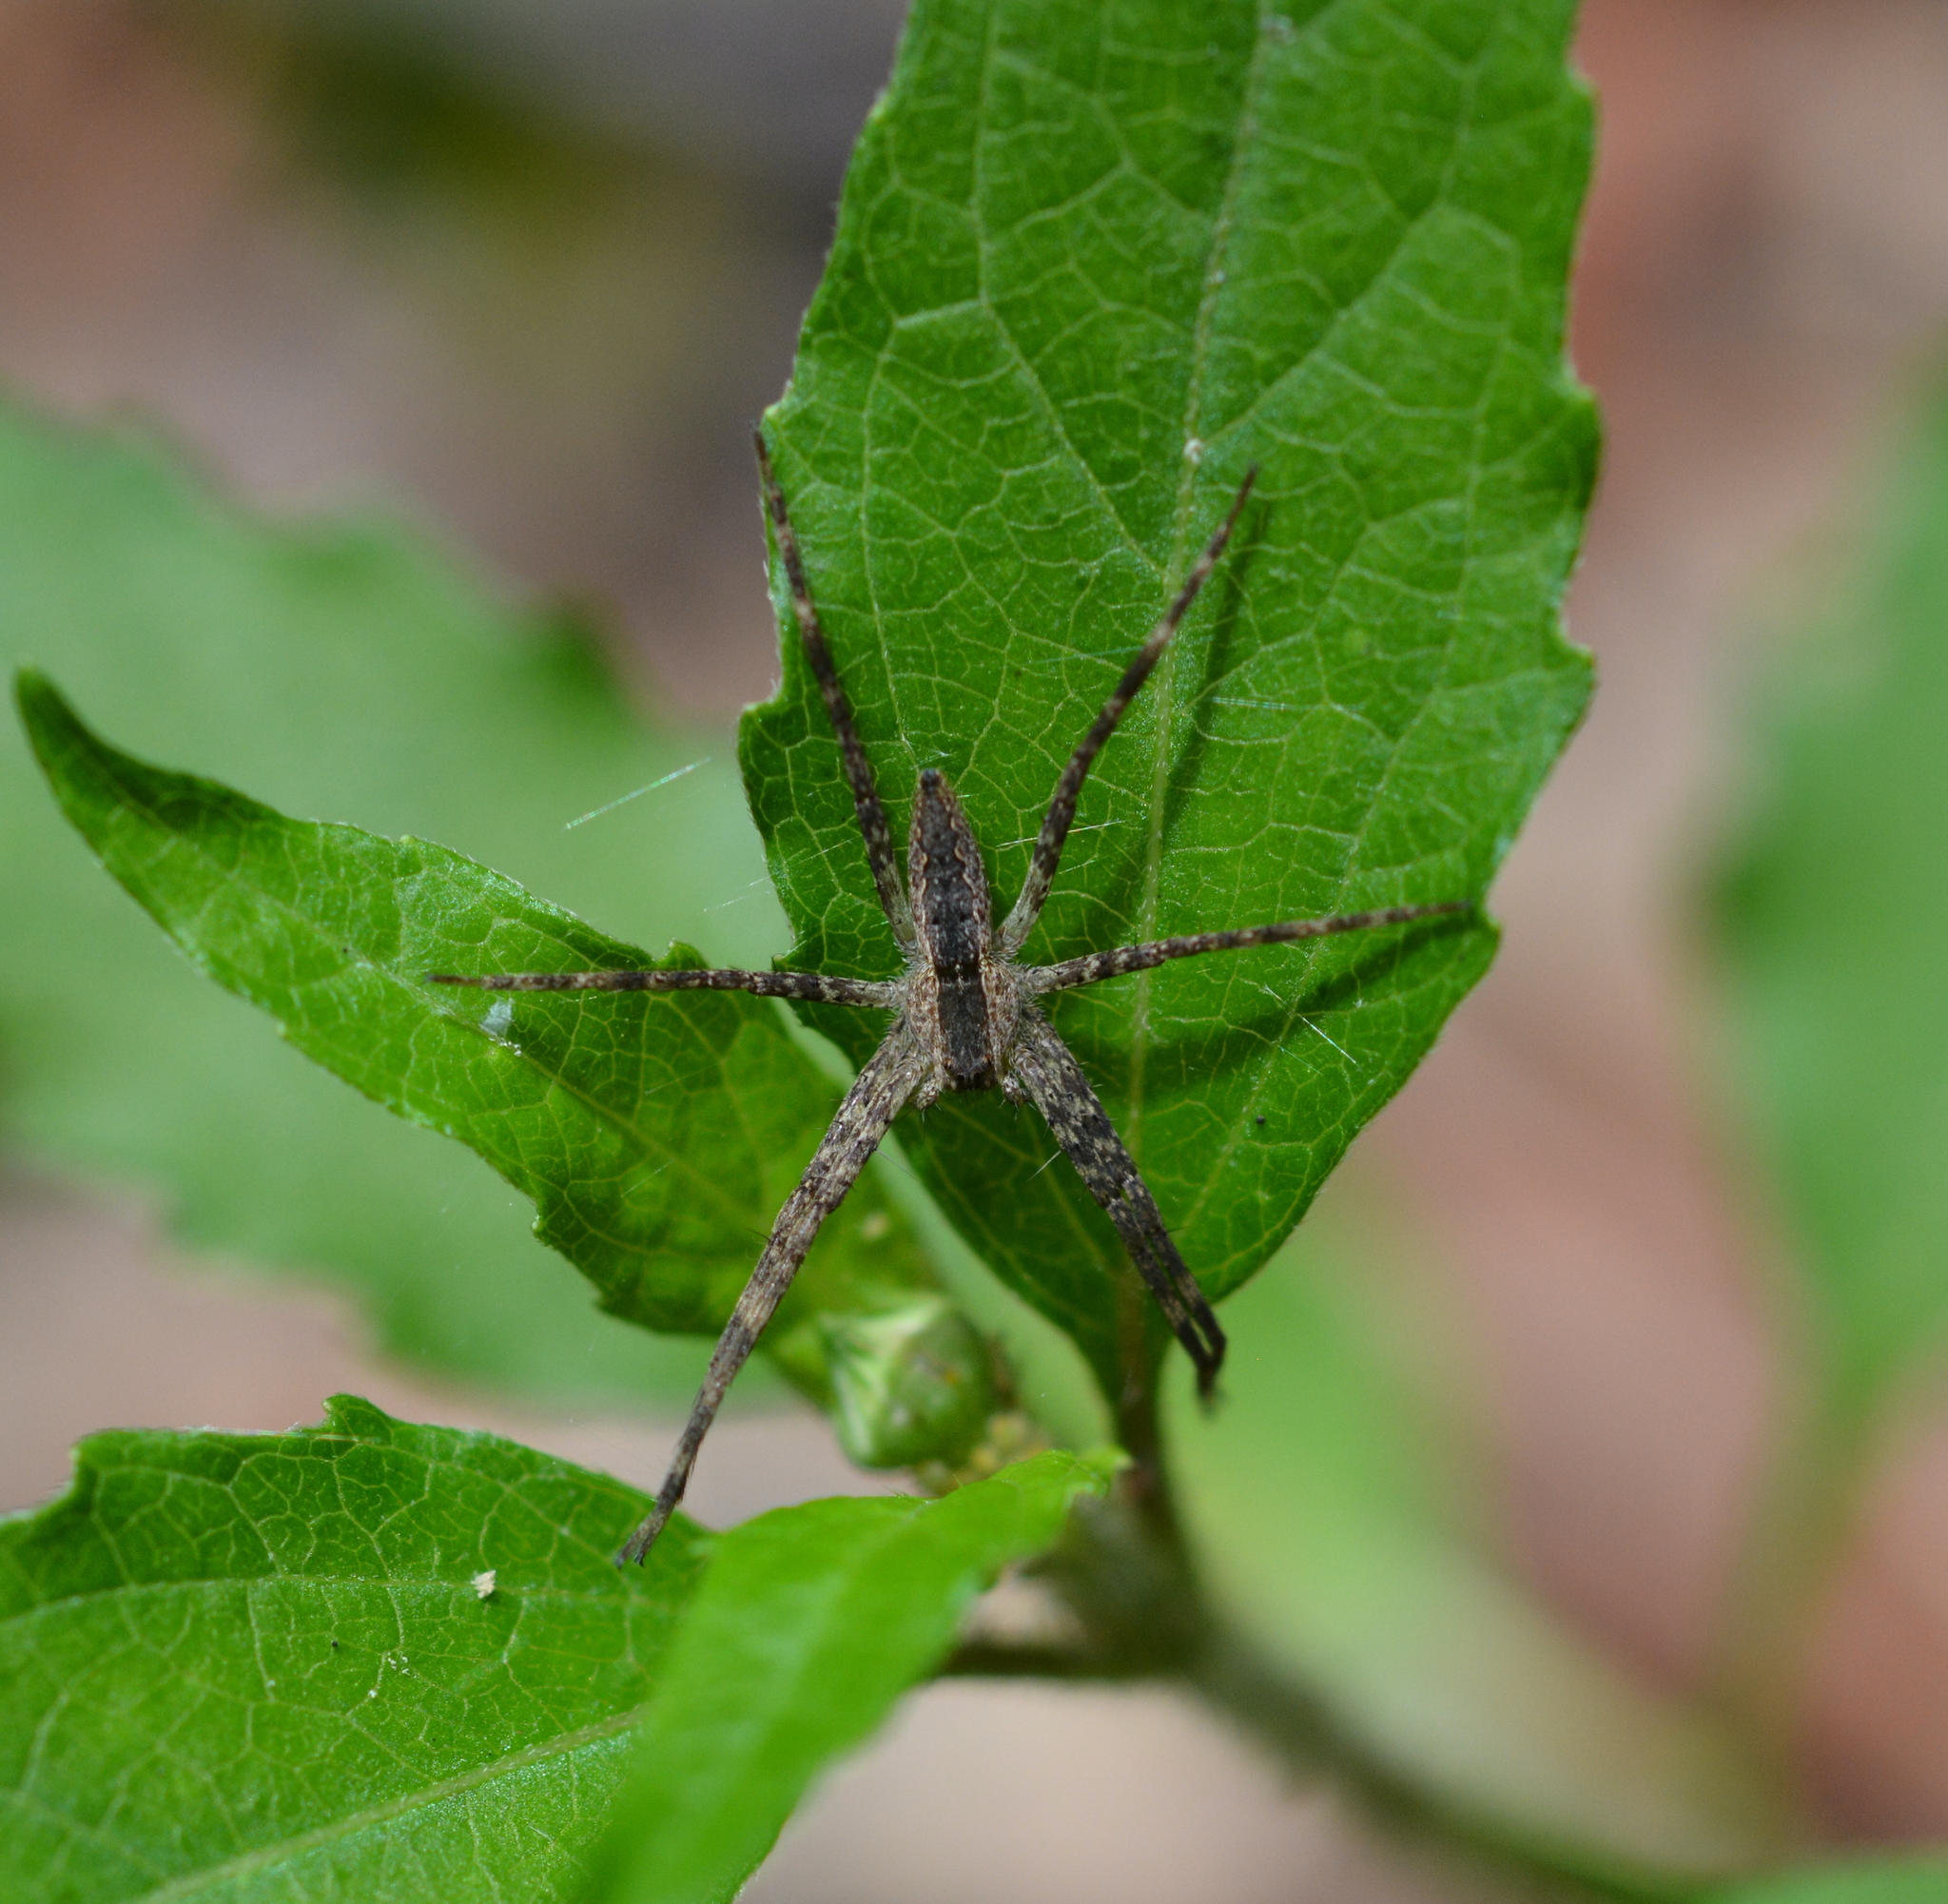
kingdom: Animalia
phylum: Arthropoda
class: Arachnida
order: Araneae
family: Pisauridae
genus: Pisaurina
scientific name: Pisaurina mira
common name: American nursery web spider
